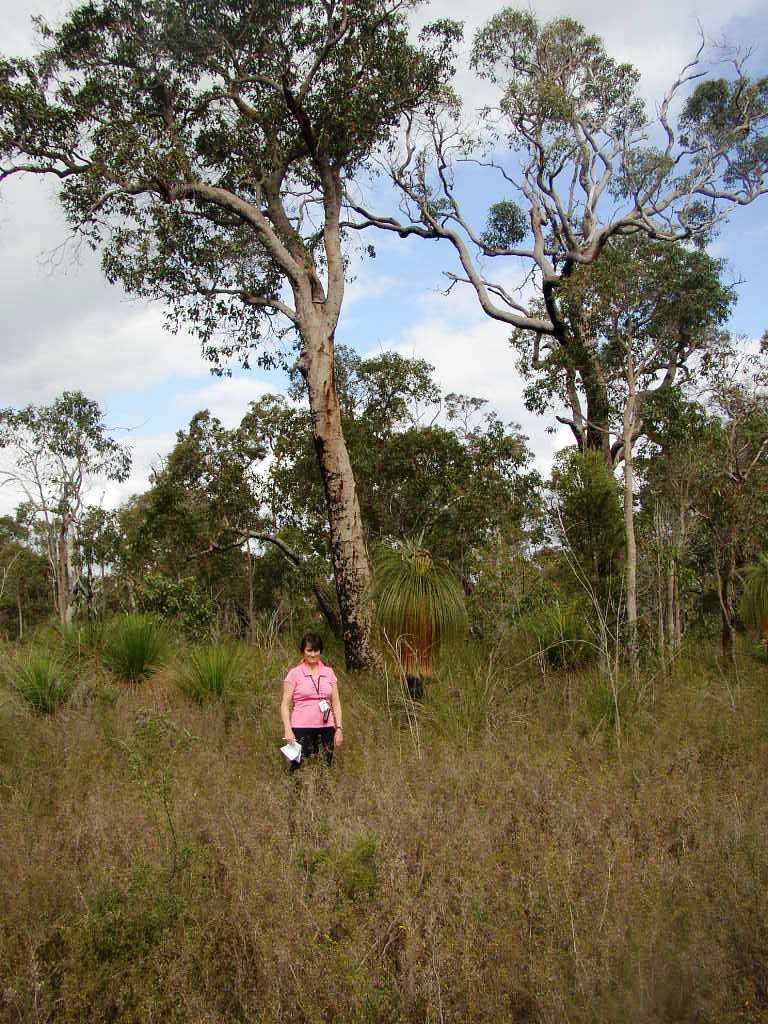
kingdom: Plantae
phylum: Tracheophyta
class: Magnoliopsida
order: Myrtales
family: Myrtaceae
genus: Corymbia
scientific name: Corymbia calophylla
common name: Marri
